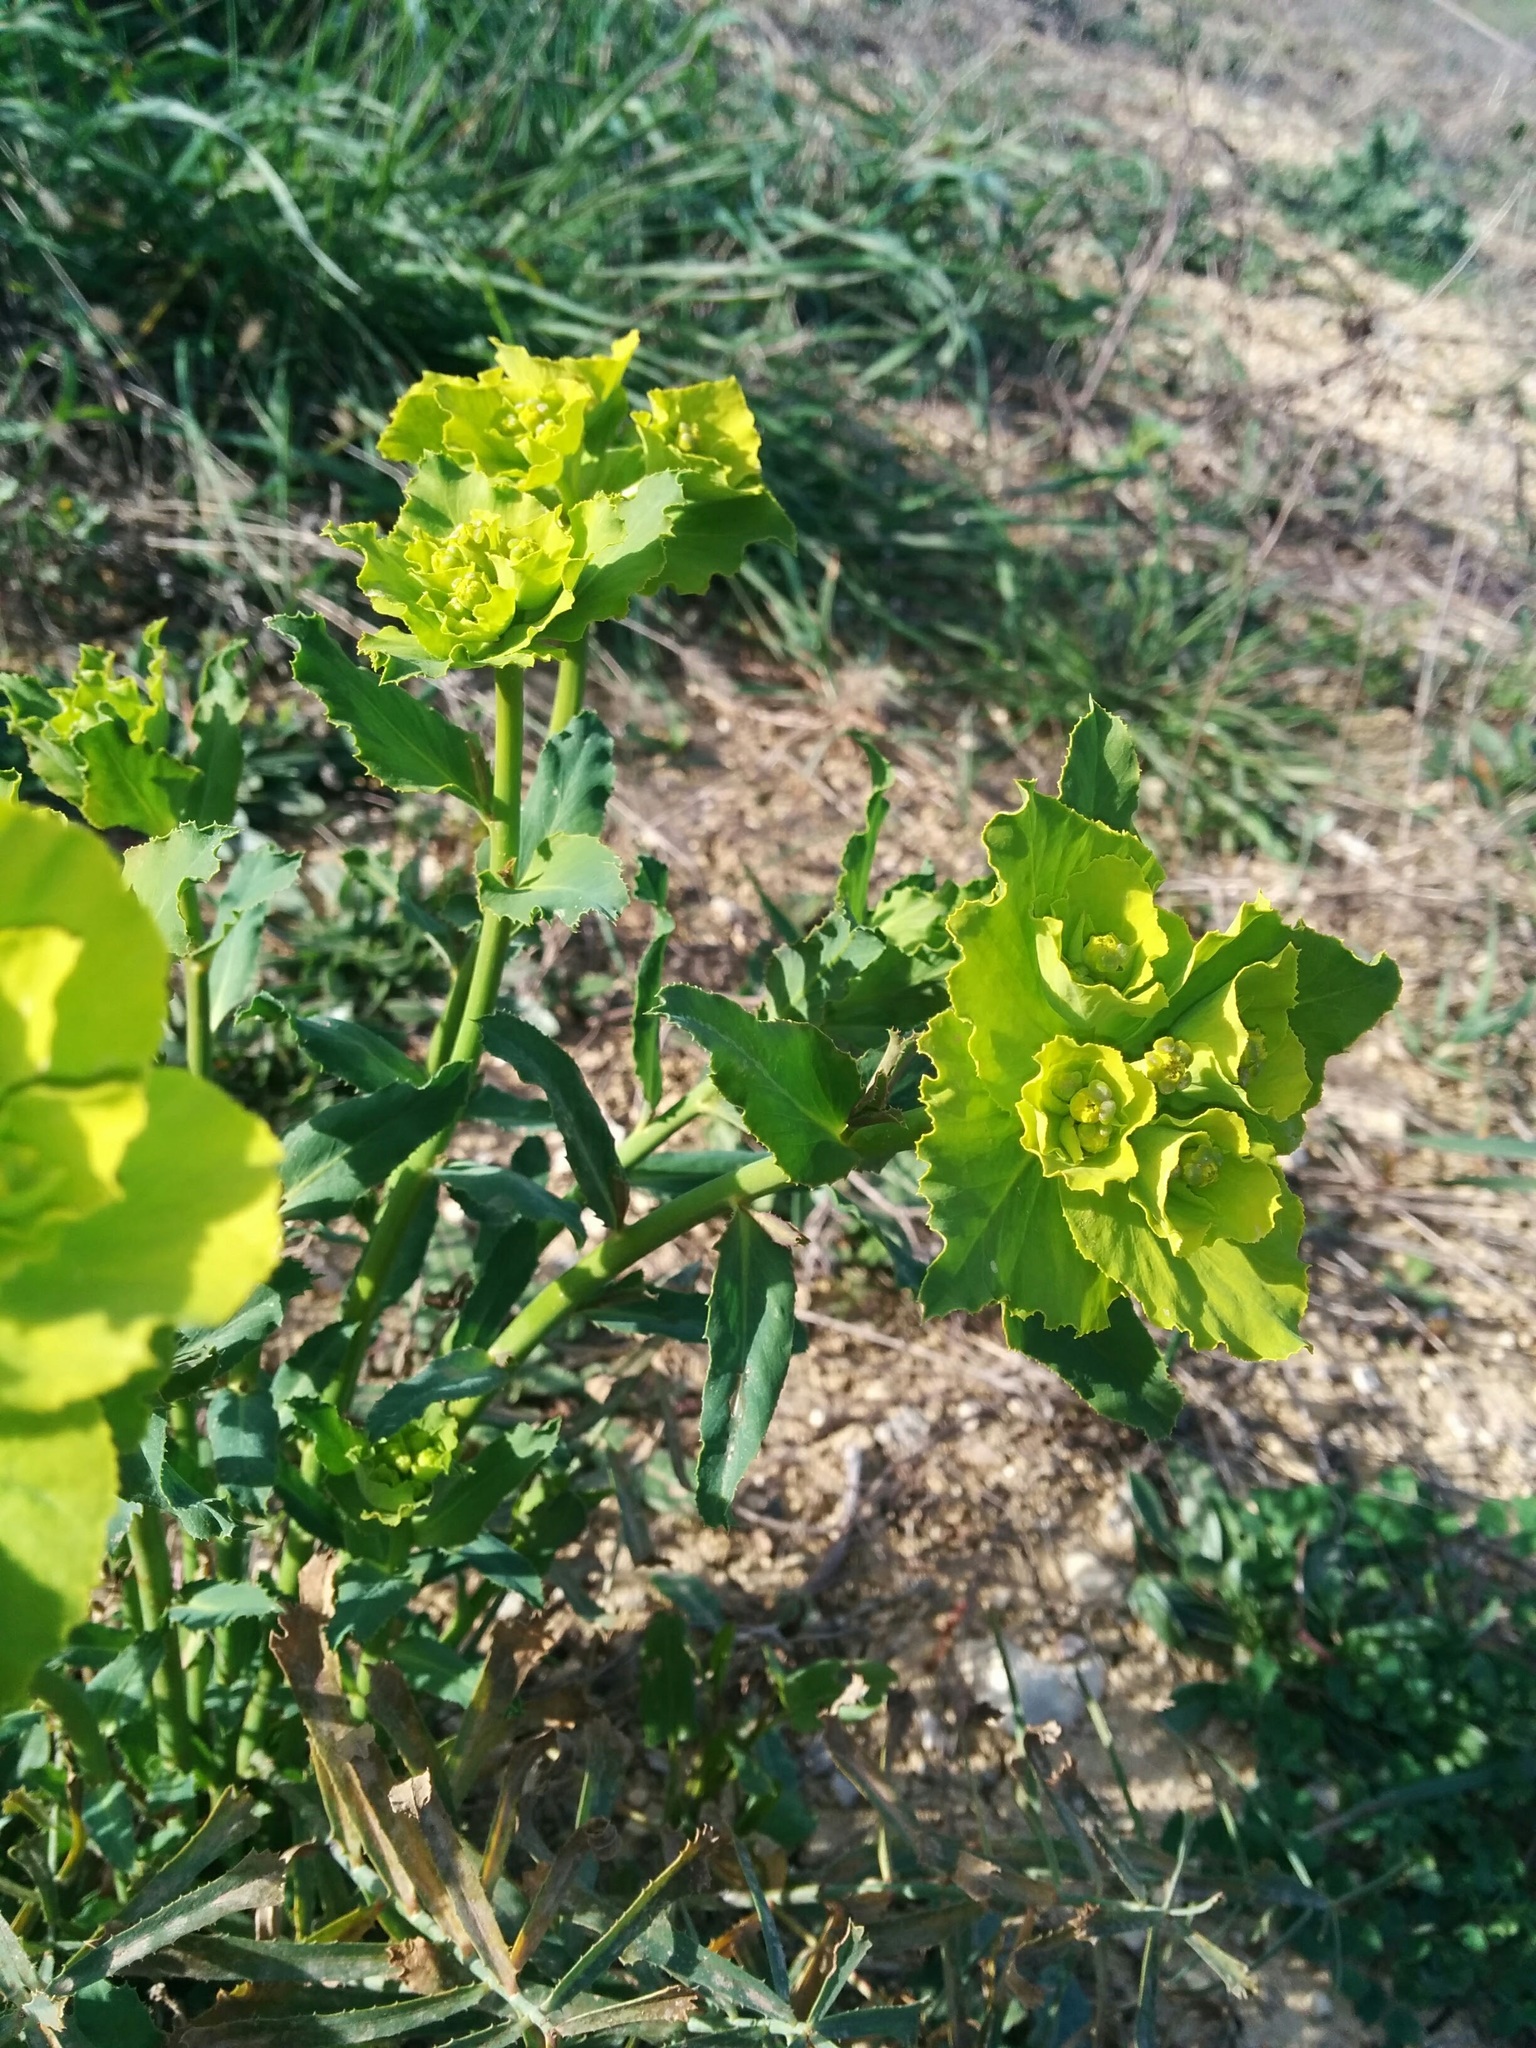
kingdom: Plantae
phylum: Tracheophyta
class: Magnoliopsida
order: Malpighiales
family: Euphorbiaceae
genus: Euphorbia
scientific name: Euphorbia serrata
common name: Serrate spurge
